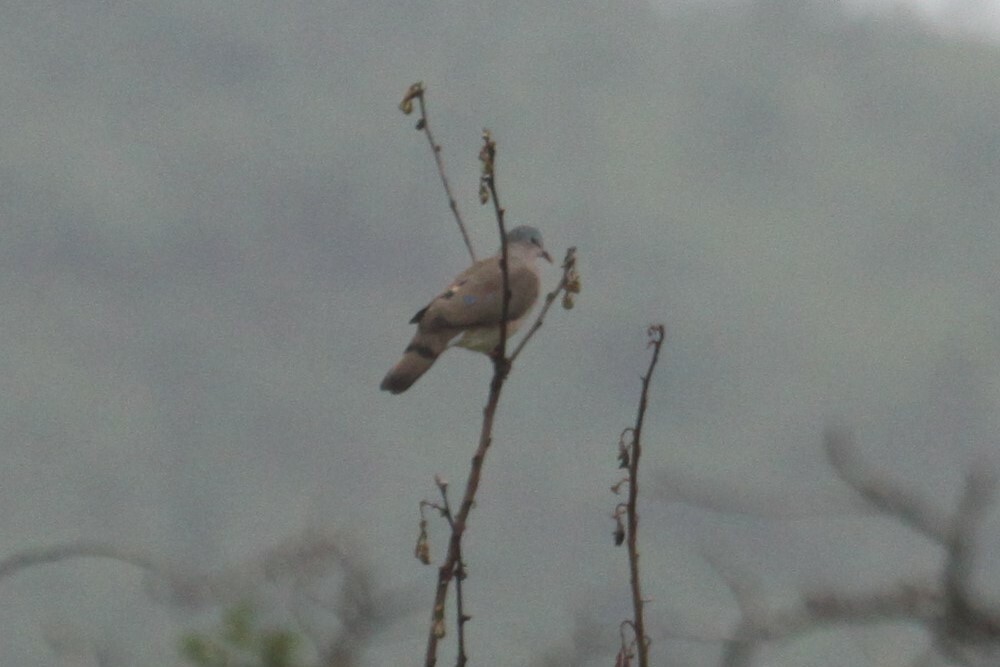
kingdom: Animalia
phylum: Chordata
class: Aves
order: Columbiformes
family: Columbidae
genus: Turtur
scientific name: Turtur chalcospilos
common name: Emerald-spotted wood dove
